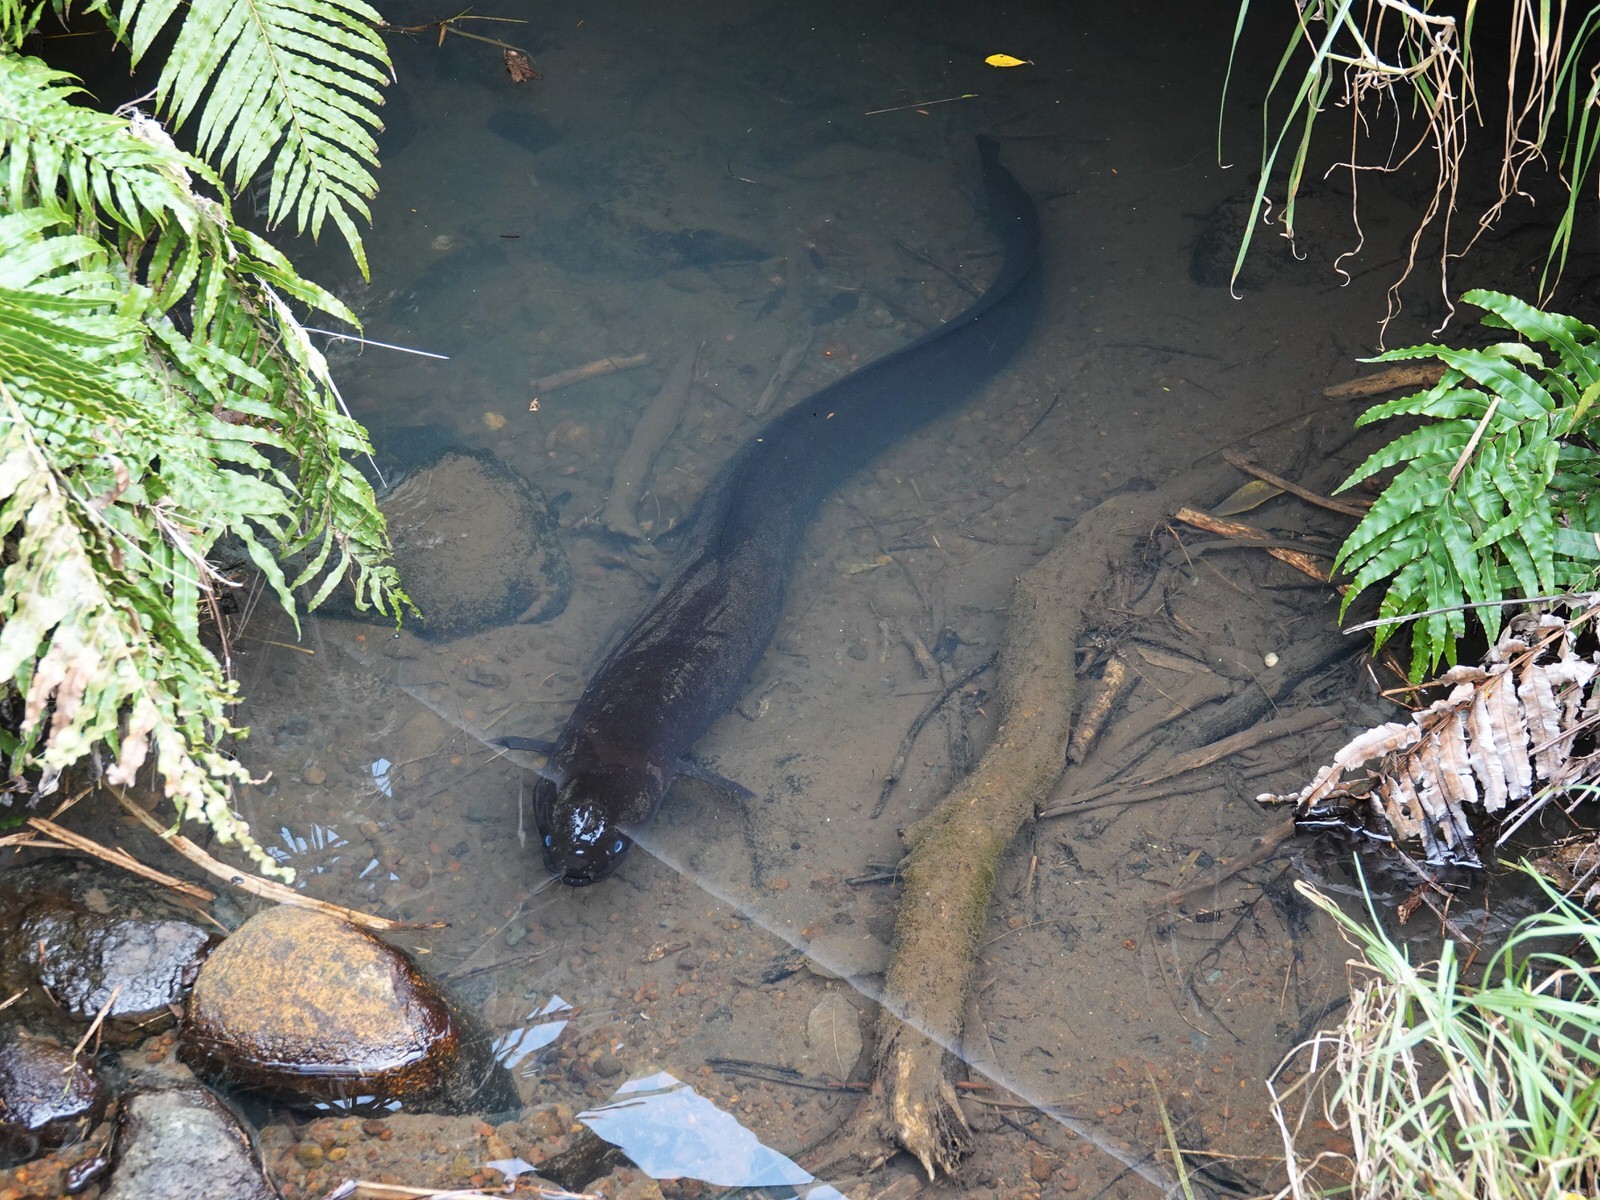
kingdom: Animalia
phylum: Chordata
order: Anguilliformes
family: Anguillidae
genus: Anguilla
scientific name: Anguilla dieffenbachii
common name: New zealand longfin eel
